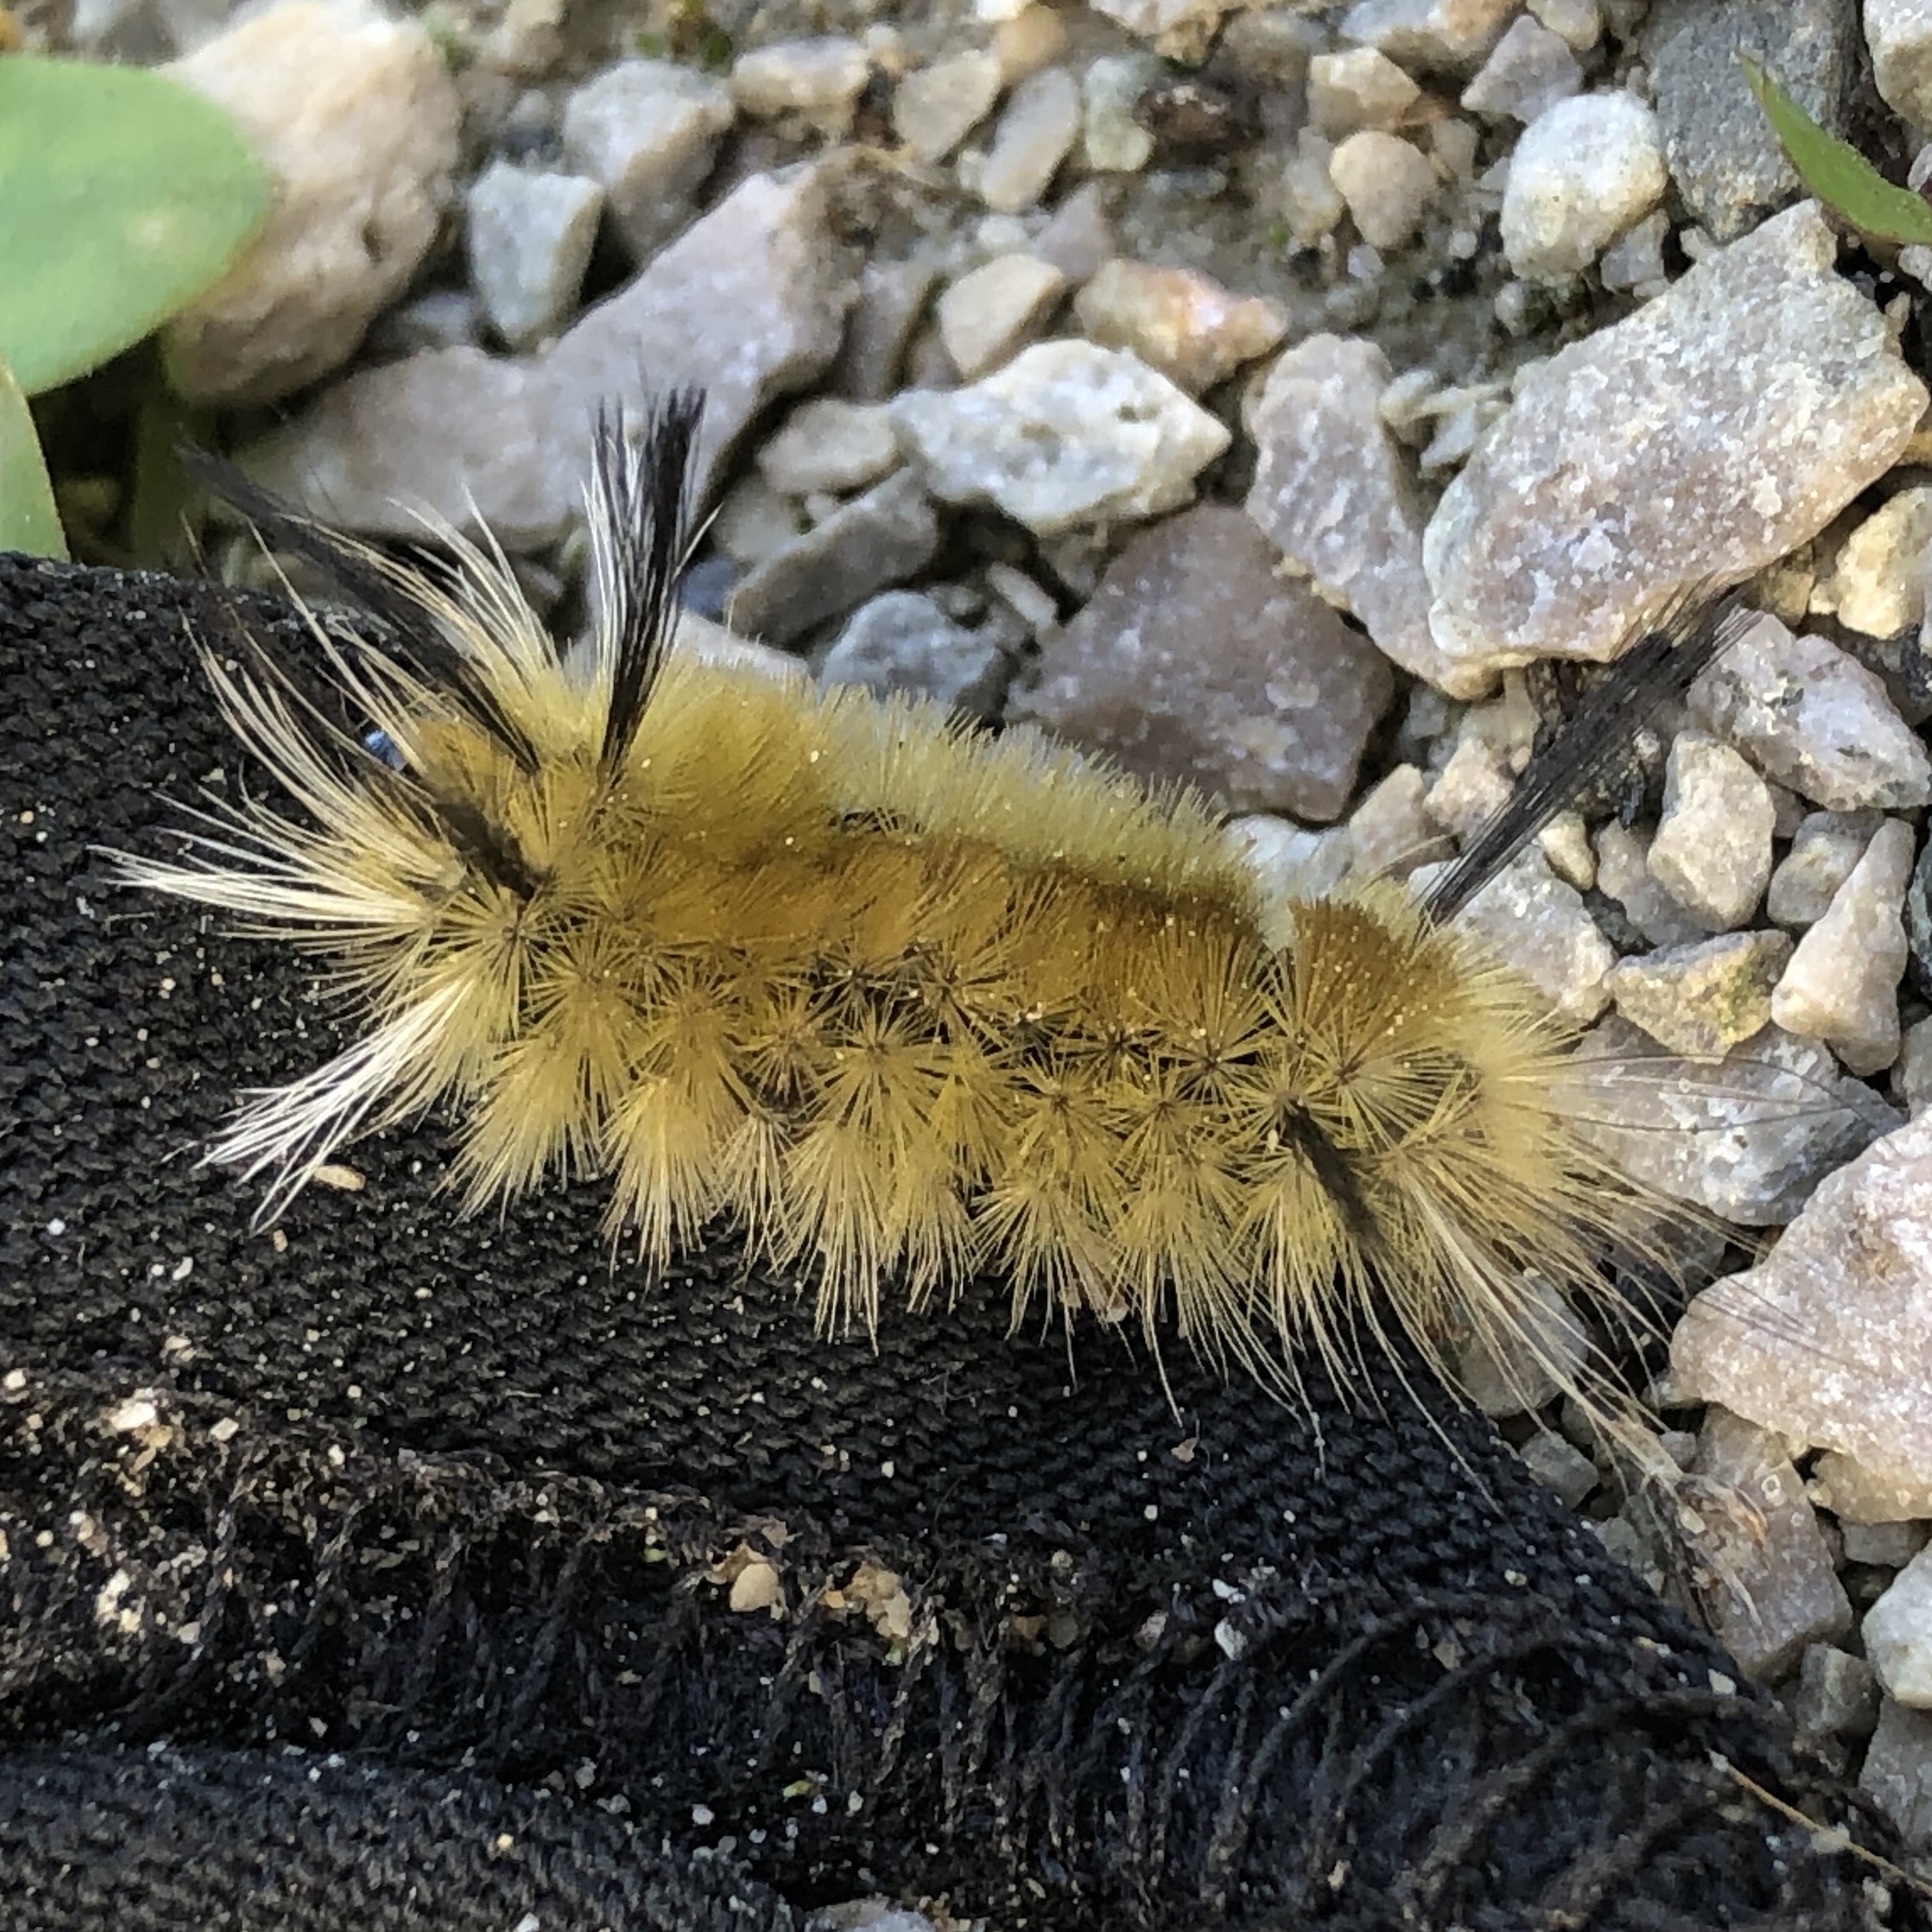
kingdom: Animalia
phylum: Arthropoda
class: Insecta
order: Lepidoptera
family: Erebidae
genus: Halysidota
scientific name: Halysidota tessellaris
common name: Banded tussock moth
